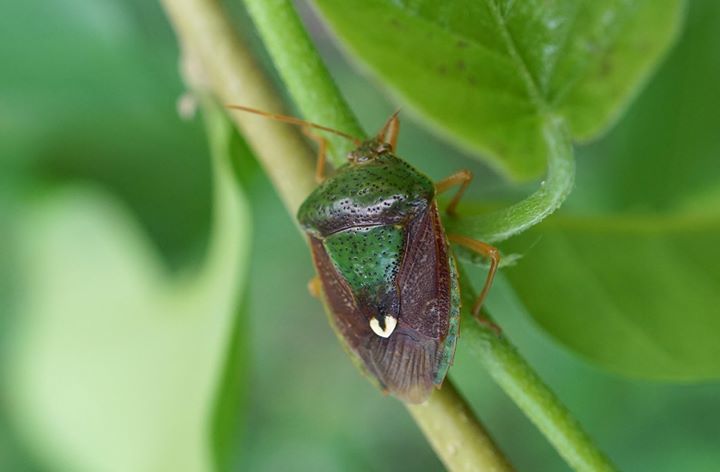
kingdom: Animalia
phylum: Arthropoda
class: Insecta
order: Hemiptera
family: Pentatomidae
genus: Edessa
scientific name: Edessa bifida
